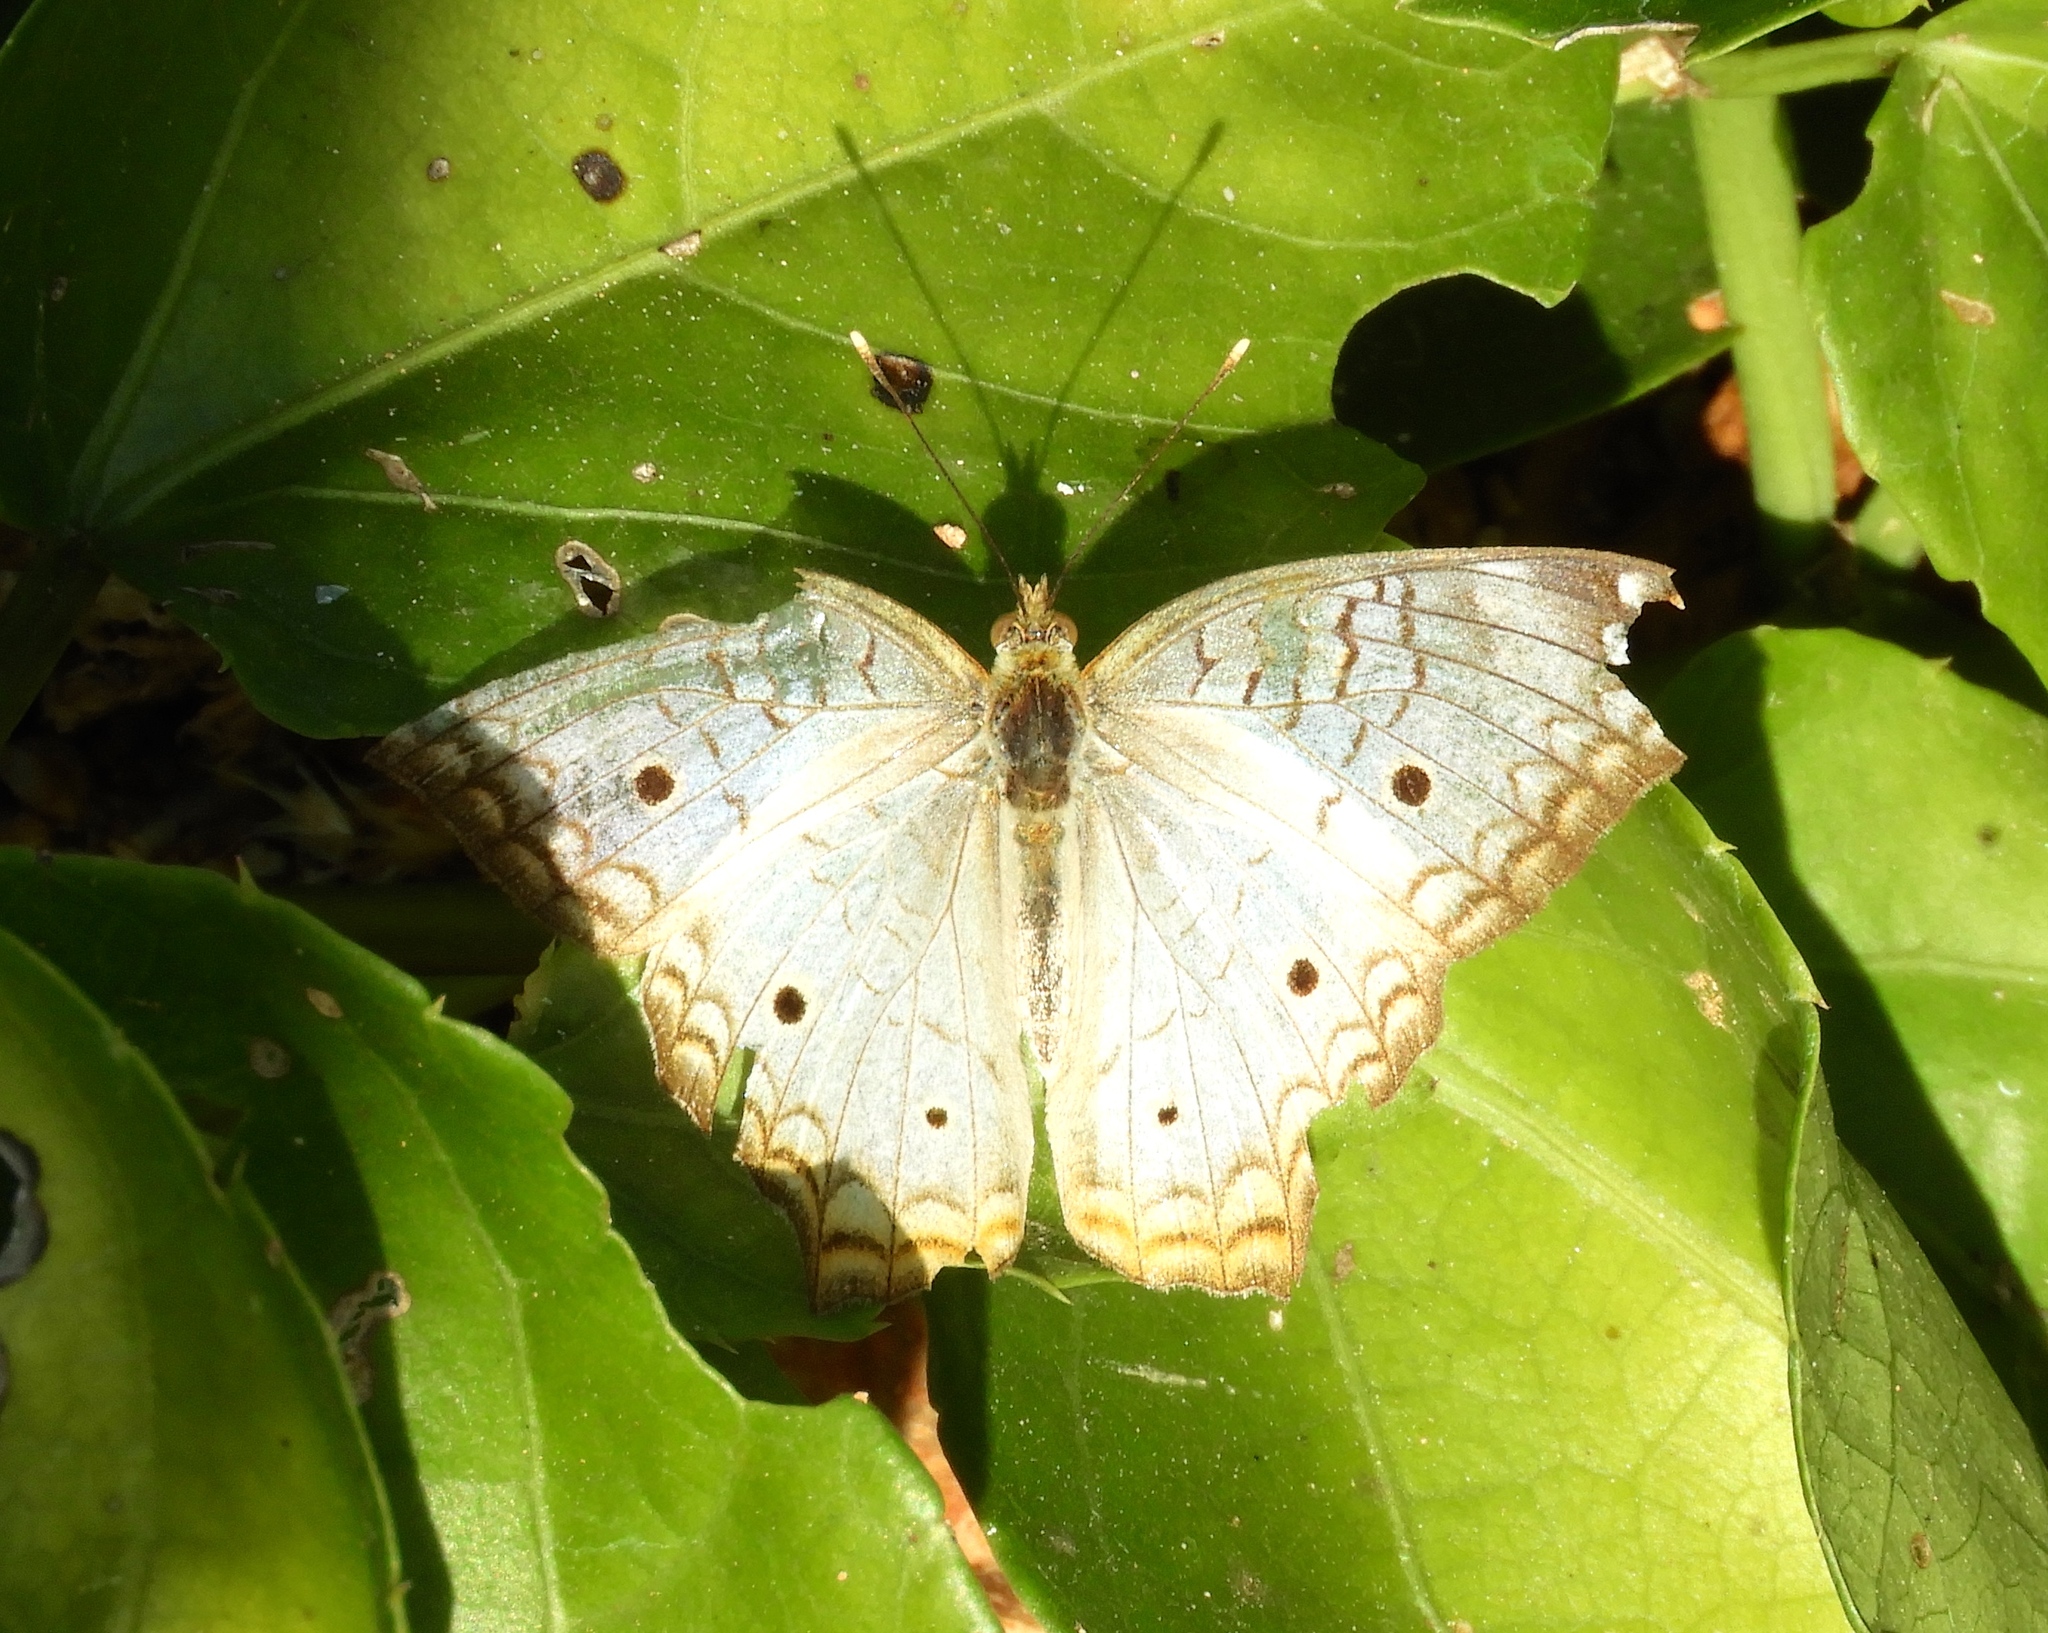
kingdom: Animalia
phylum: Arthropoda
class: Insecta
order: Lepidoptera
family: Nymphalidae
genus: Anartia
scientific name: Anartia jatrophae
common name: White peacock
